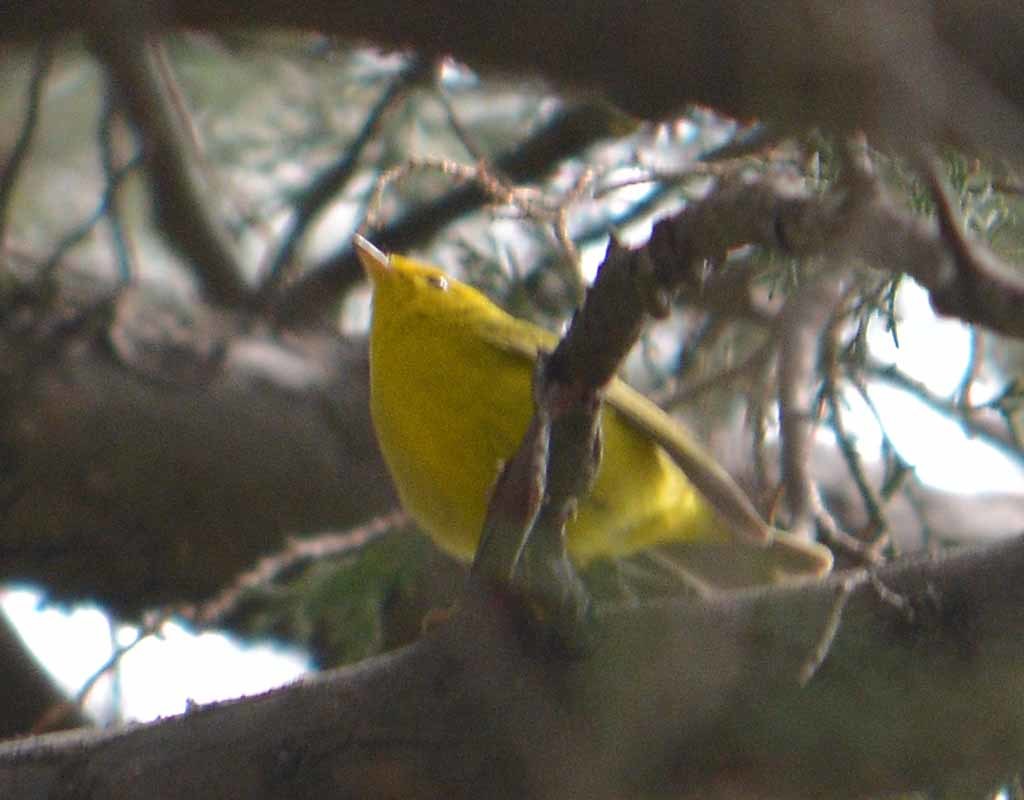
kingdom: Animalia
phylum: Chordata
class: Aves
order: Passeriformes
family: Parulidae
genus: Cardellina
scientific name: Cardellina pusilla
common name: Wilson's warbler
